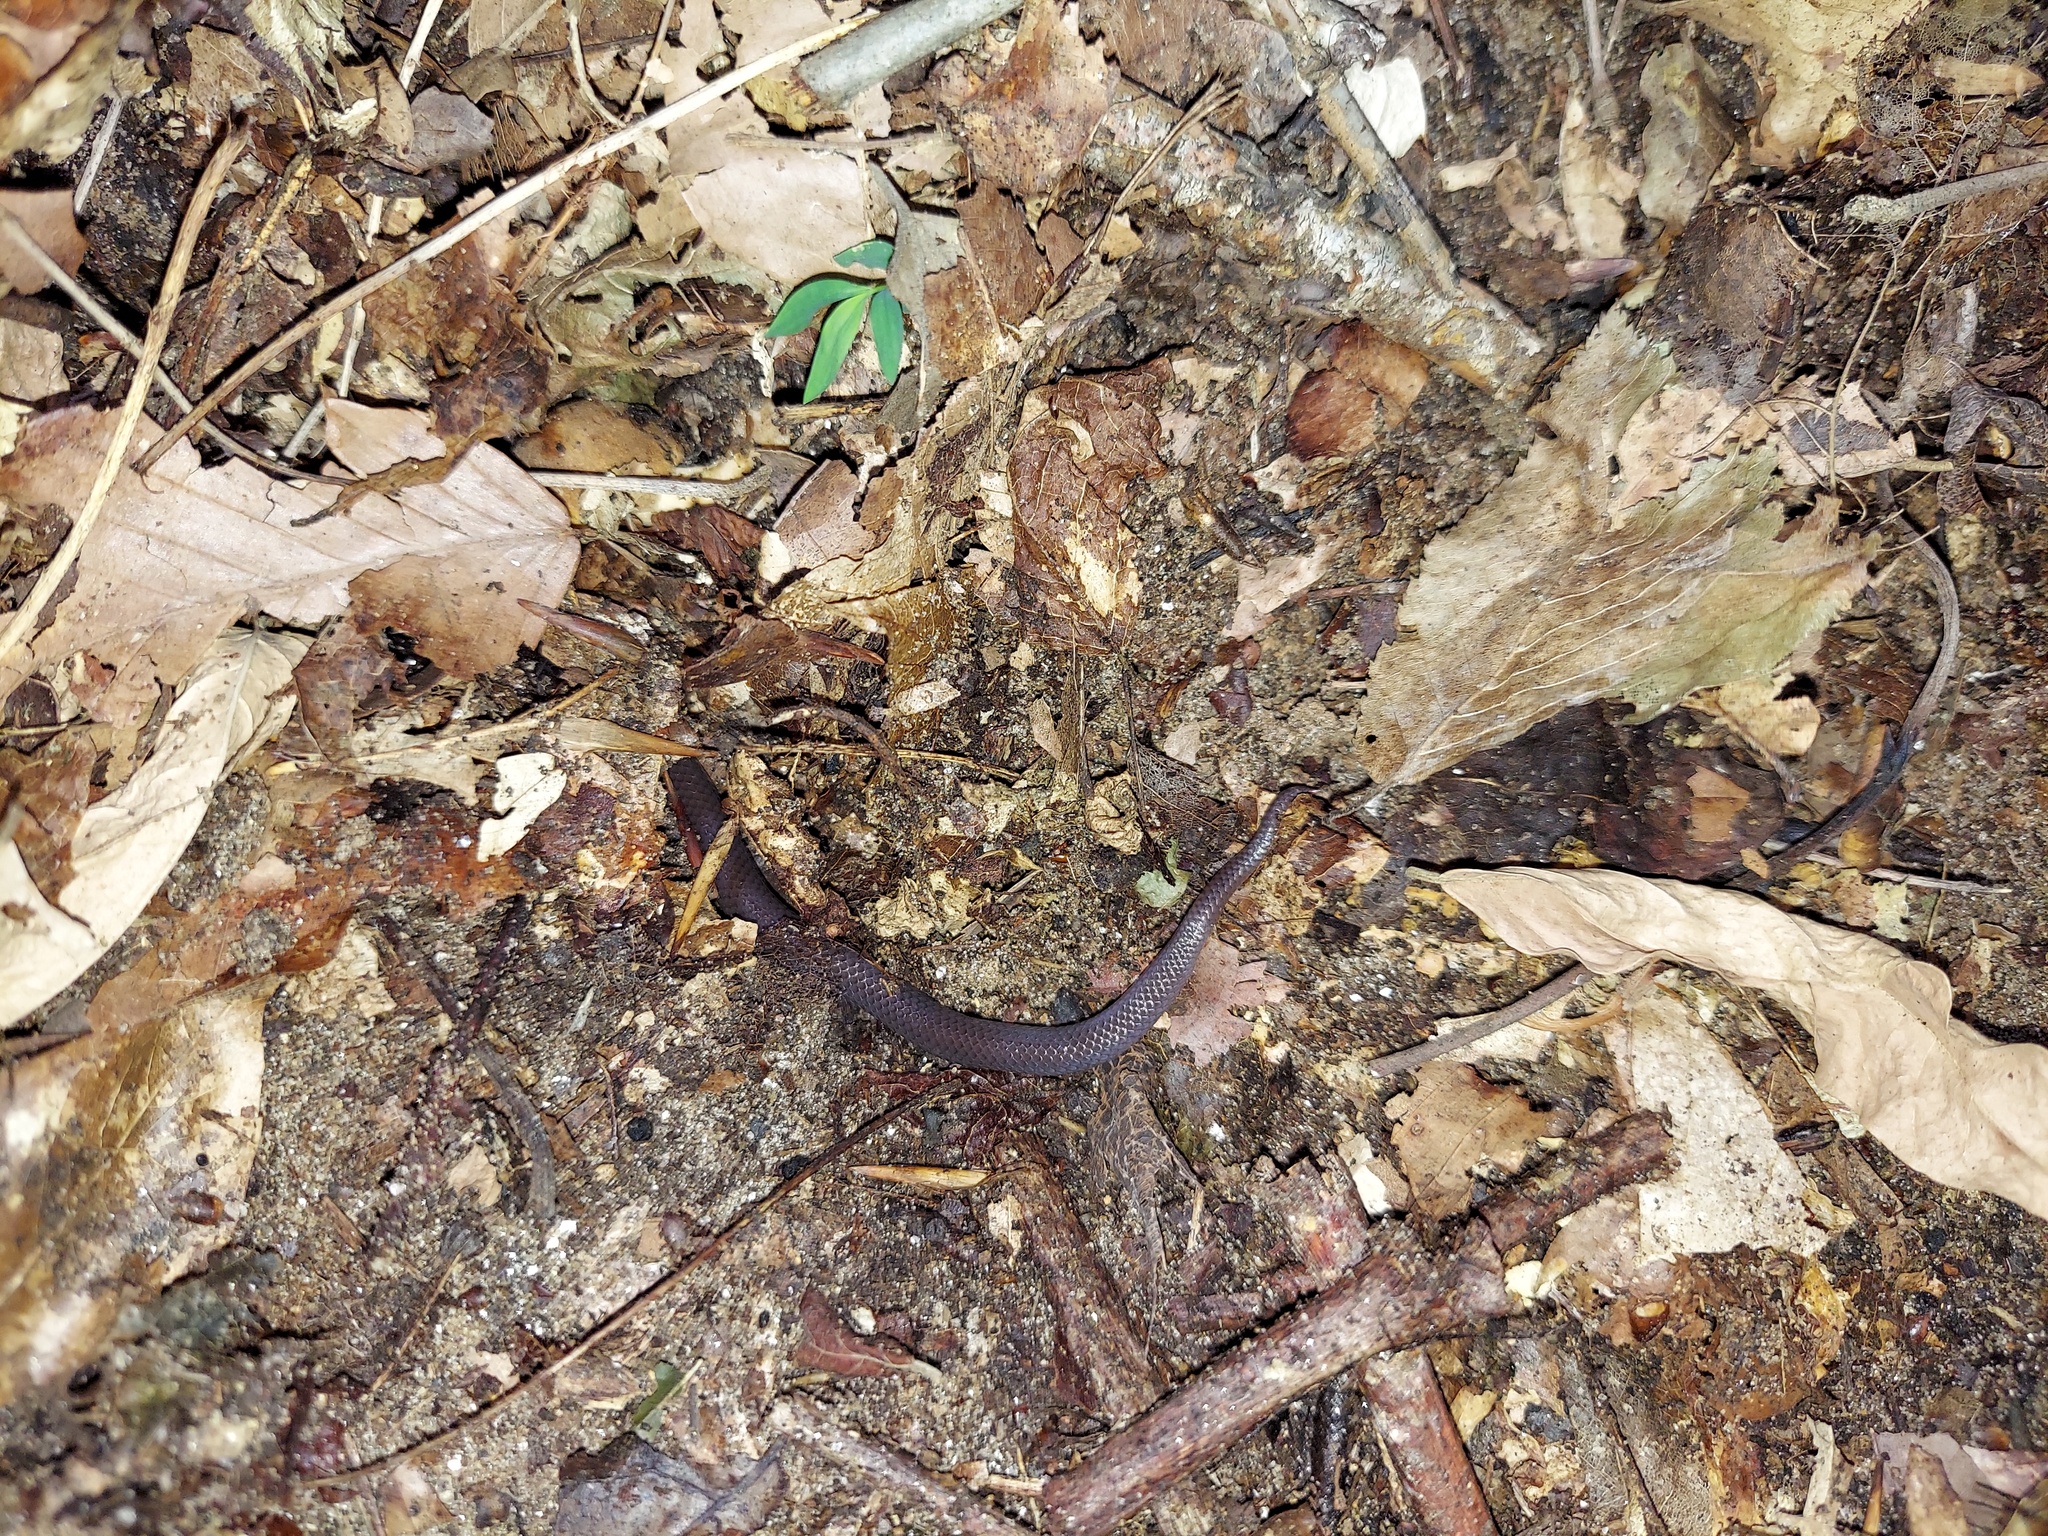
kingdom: Animalia
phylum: Chordata
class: Squamata
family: Colubridae
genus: Carphophis
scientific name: Carphophis amoenus
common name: Eastern worm snake
